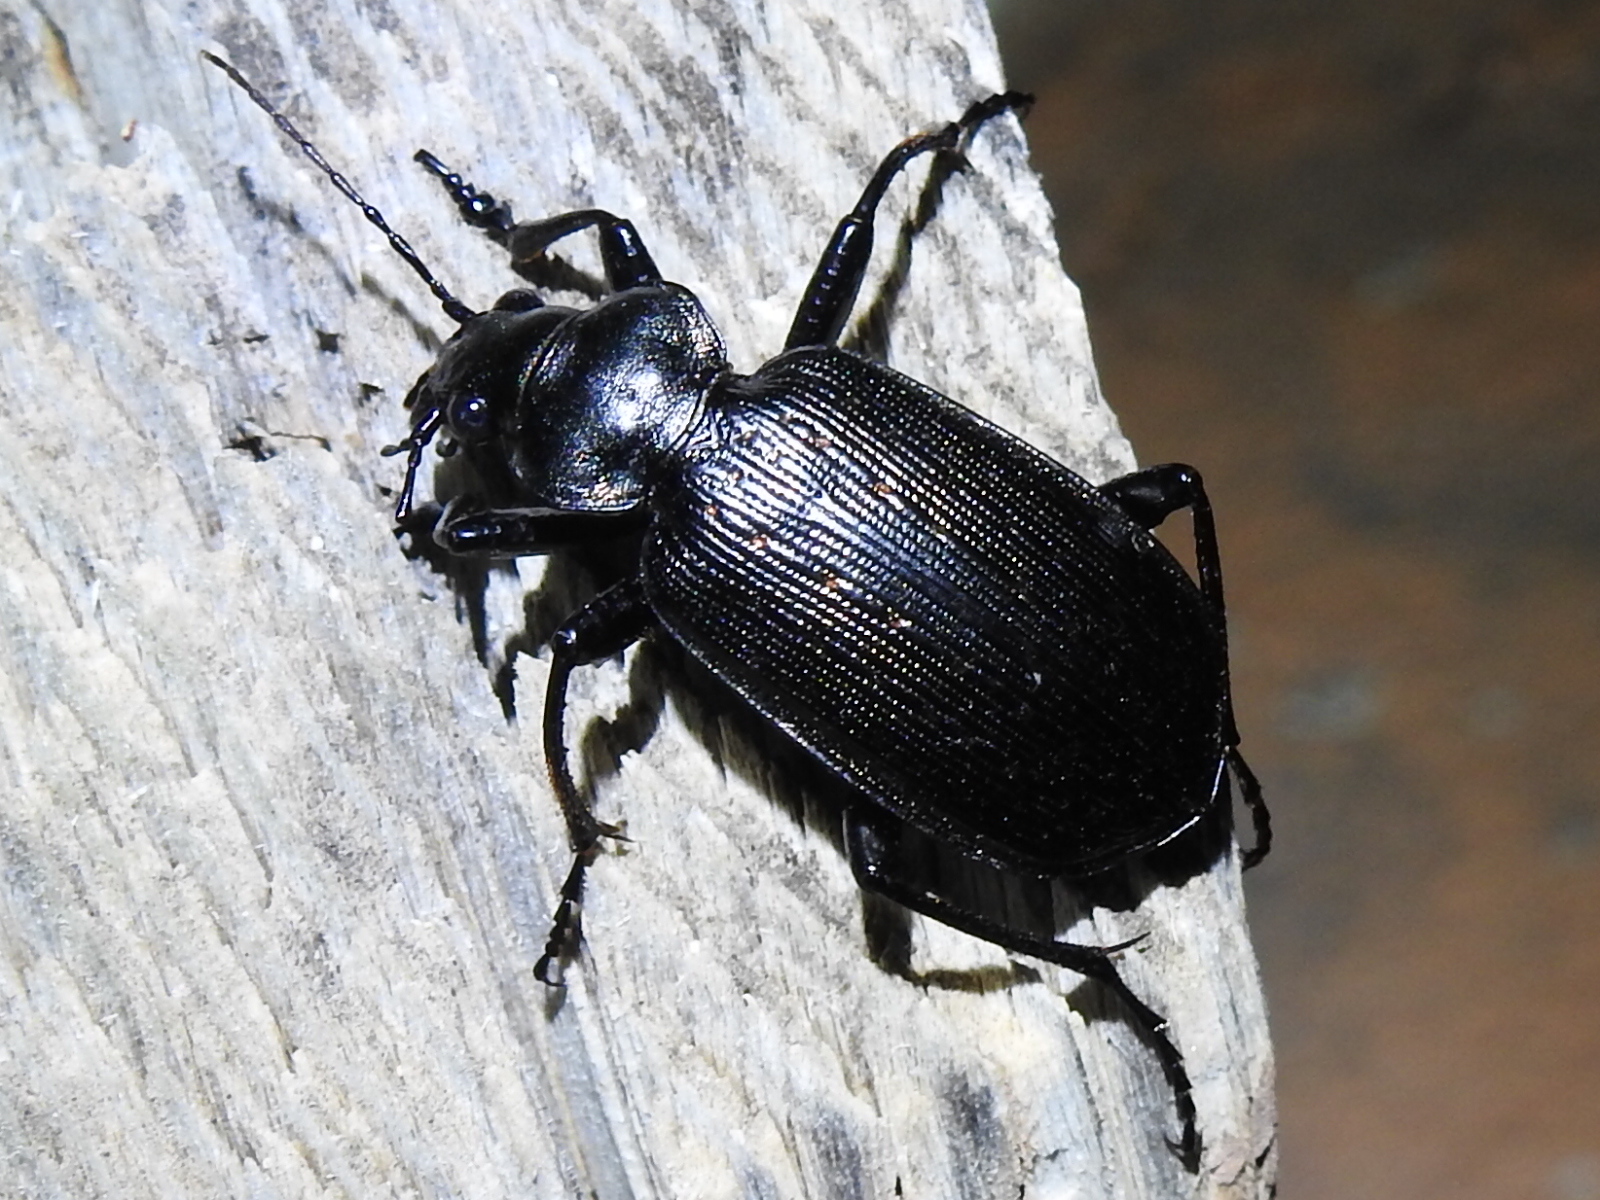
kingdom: Animalia
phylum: Arthropoda
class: Insecta
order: Coleoptera
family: Carabidae
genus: Calosoma
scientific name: Calosoma sayi
